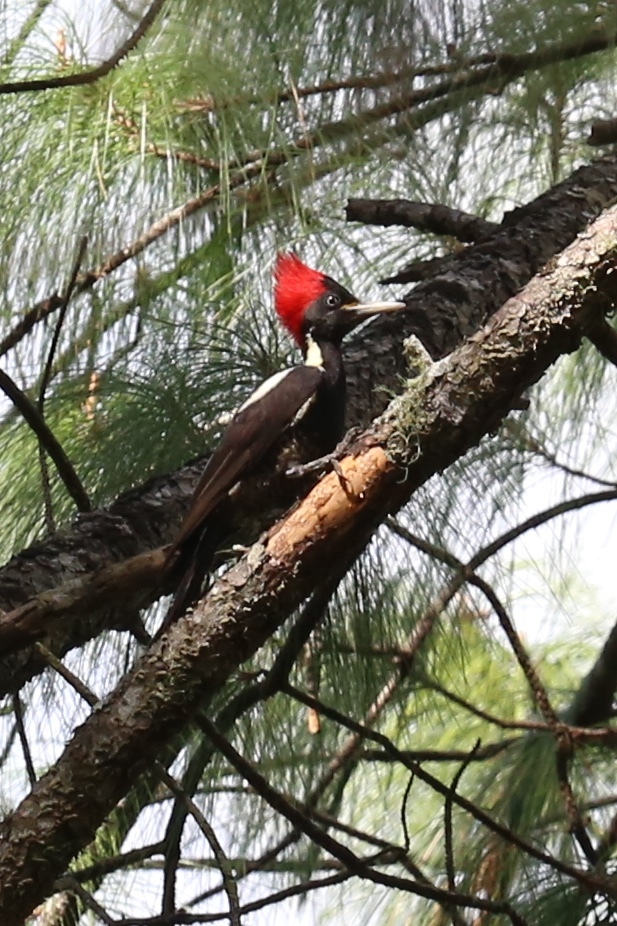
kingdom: Animalia
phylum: Chordata
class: Aves
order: Piciformes
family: Picidae
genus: Dryocopus
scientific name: Dryocopus lineatus
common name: Lineated woodpecker
